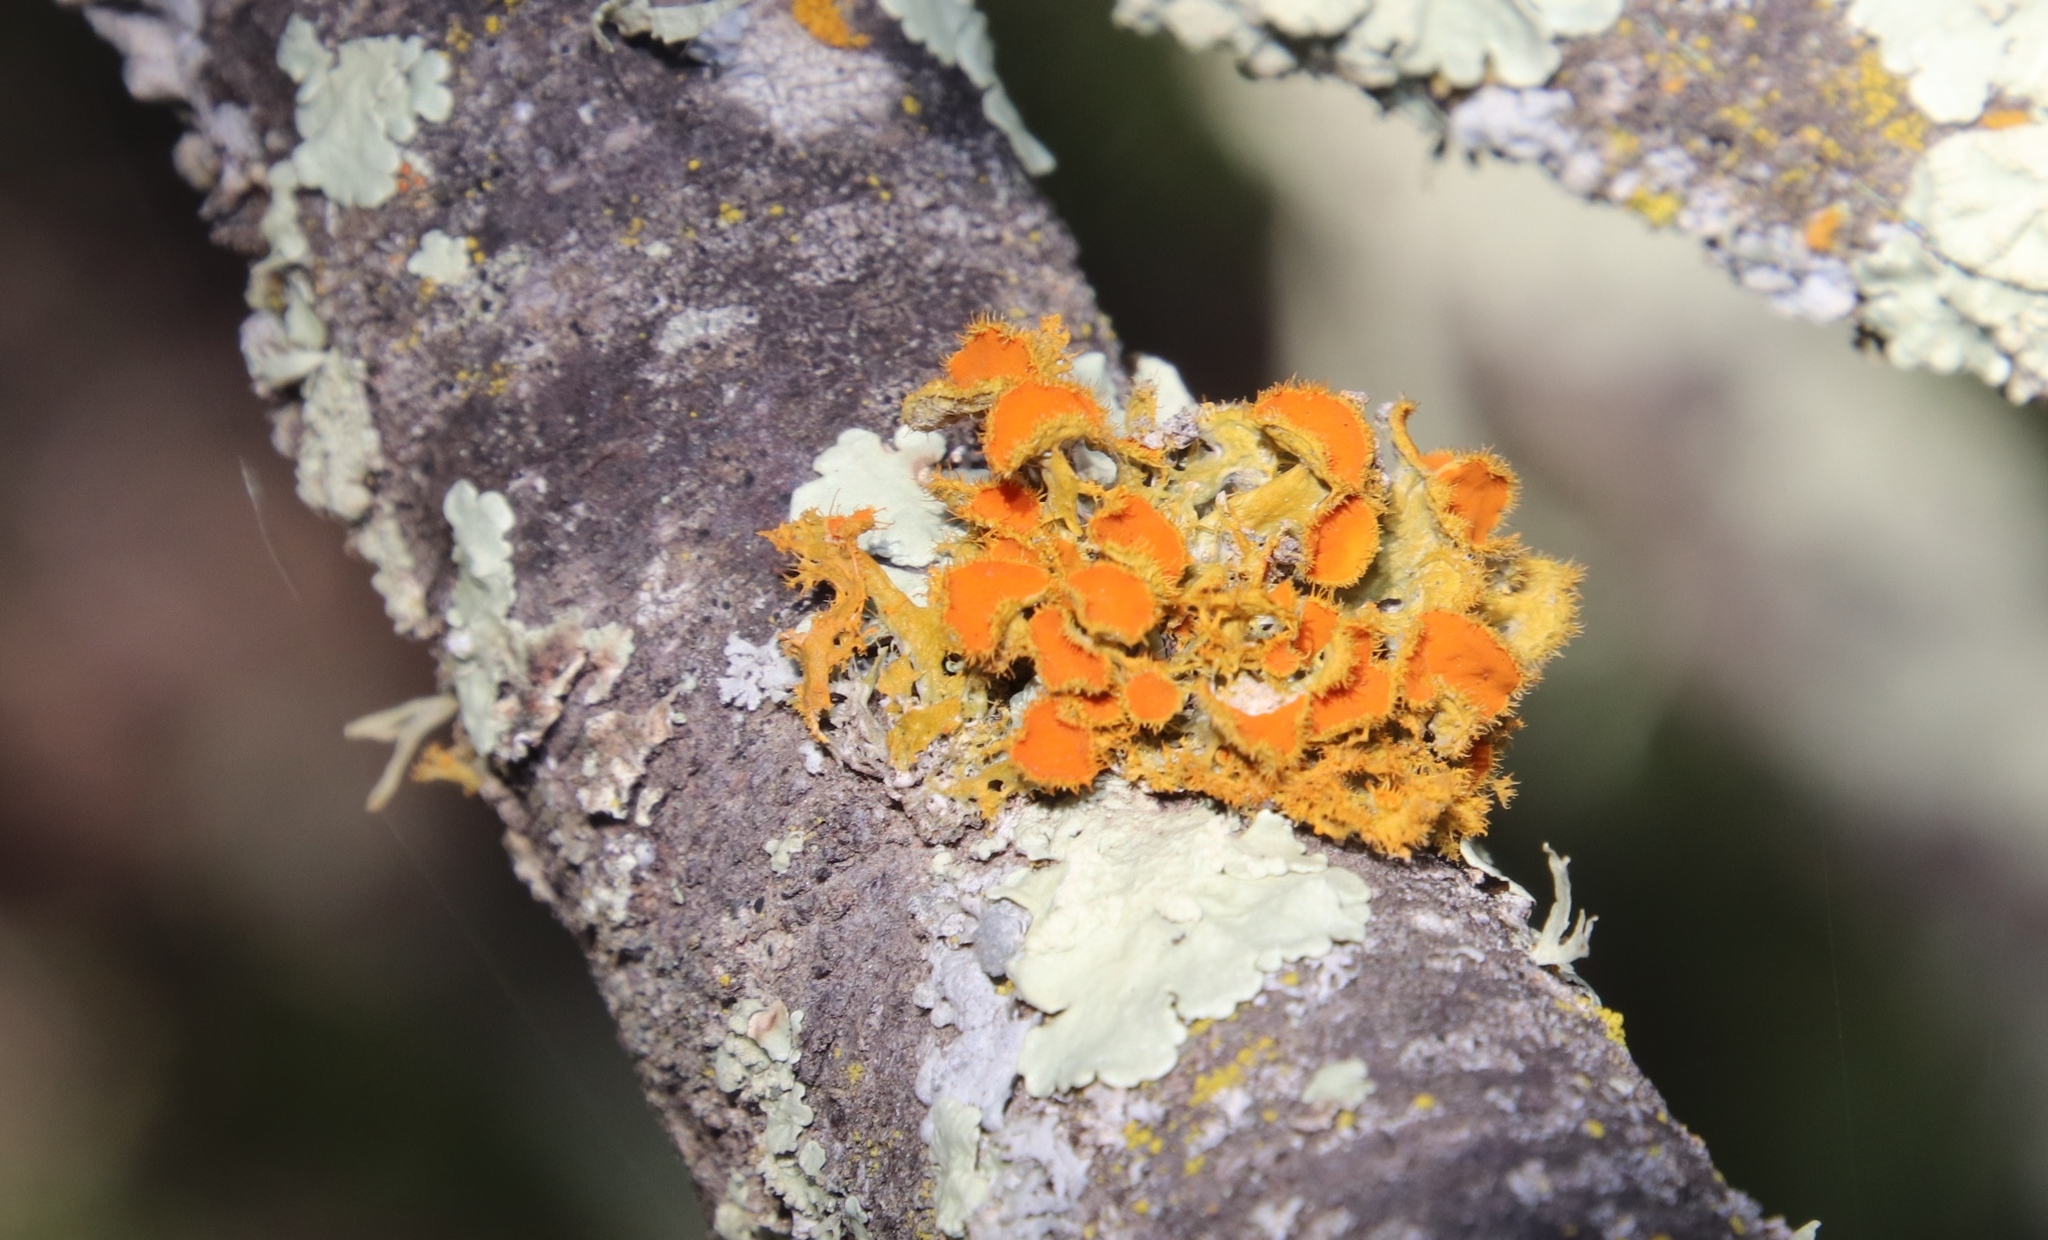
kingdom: Fungi
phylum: Ascomycota
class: Lecanoromycetes
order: Teloschistales
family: Teloschistaceae
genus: Niorma
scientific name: Niorma chrysophthalma
